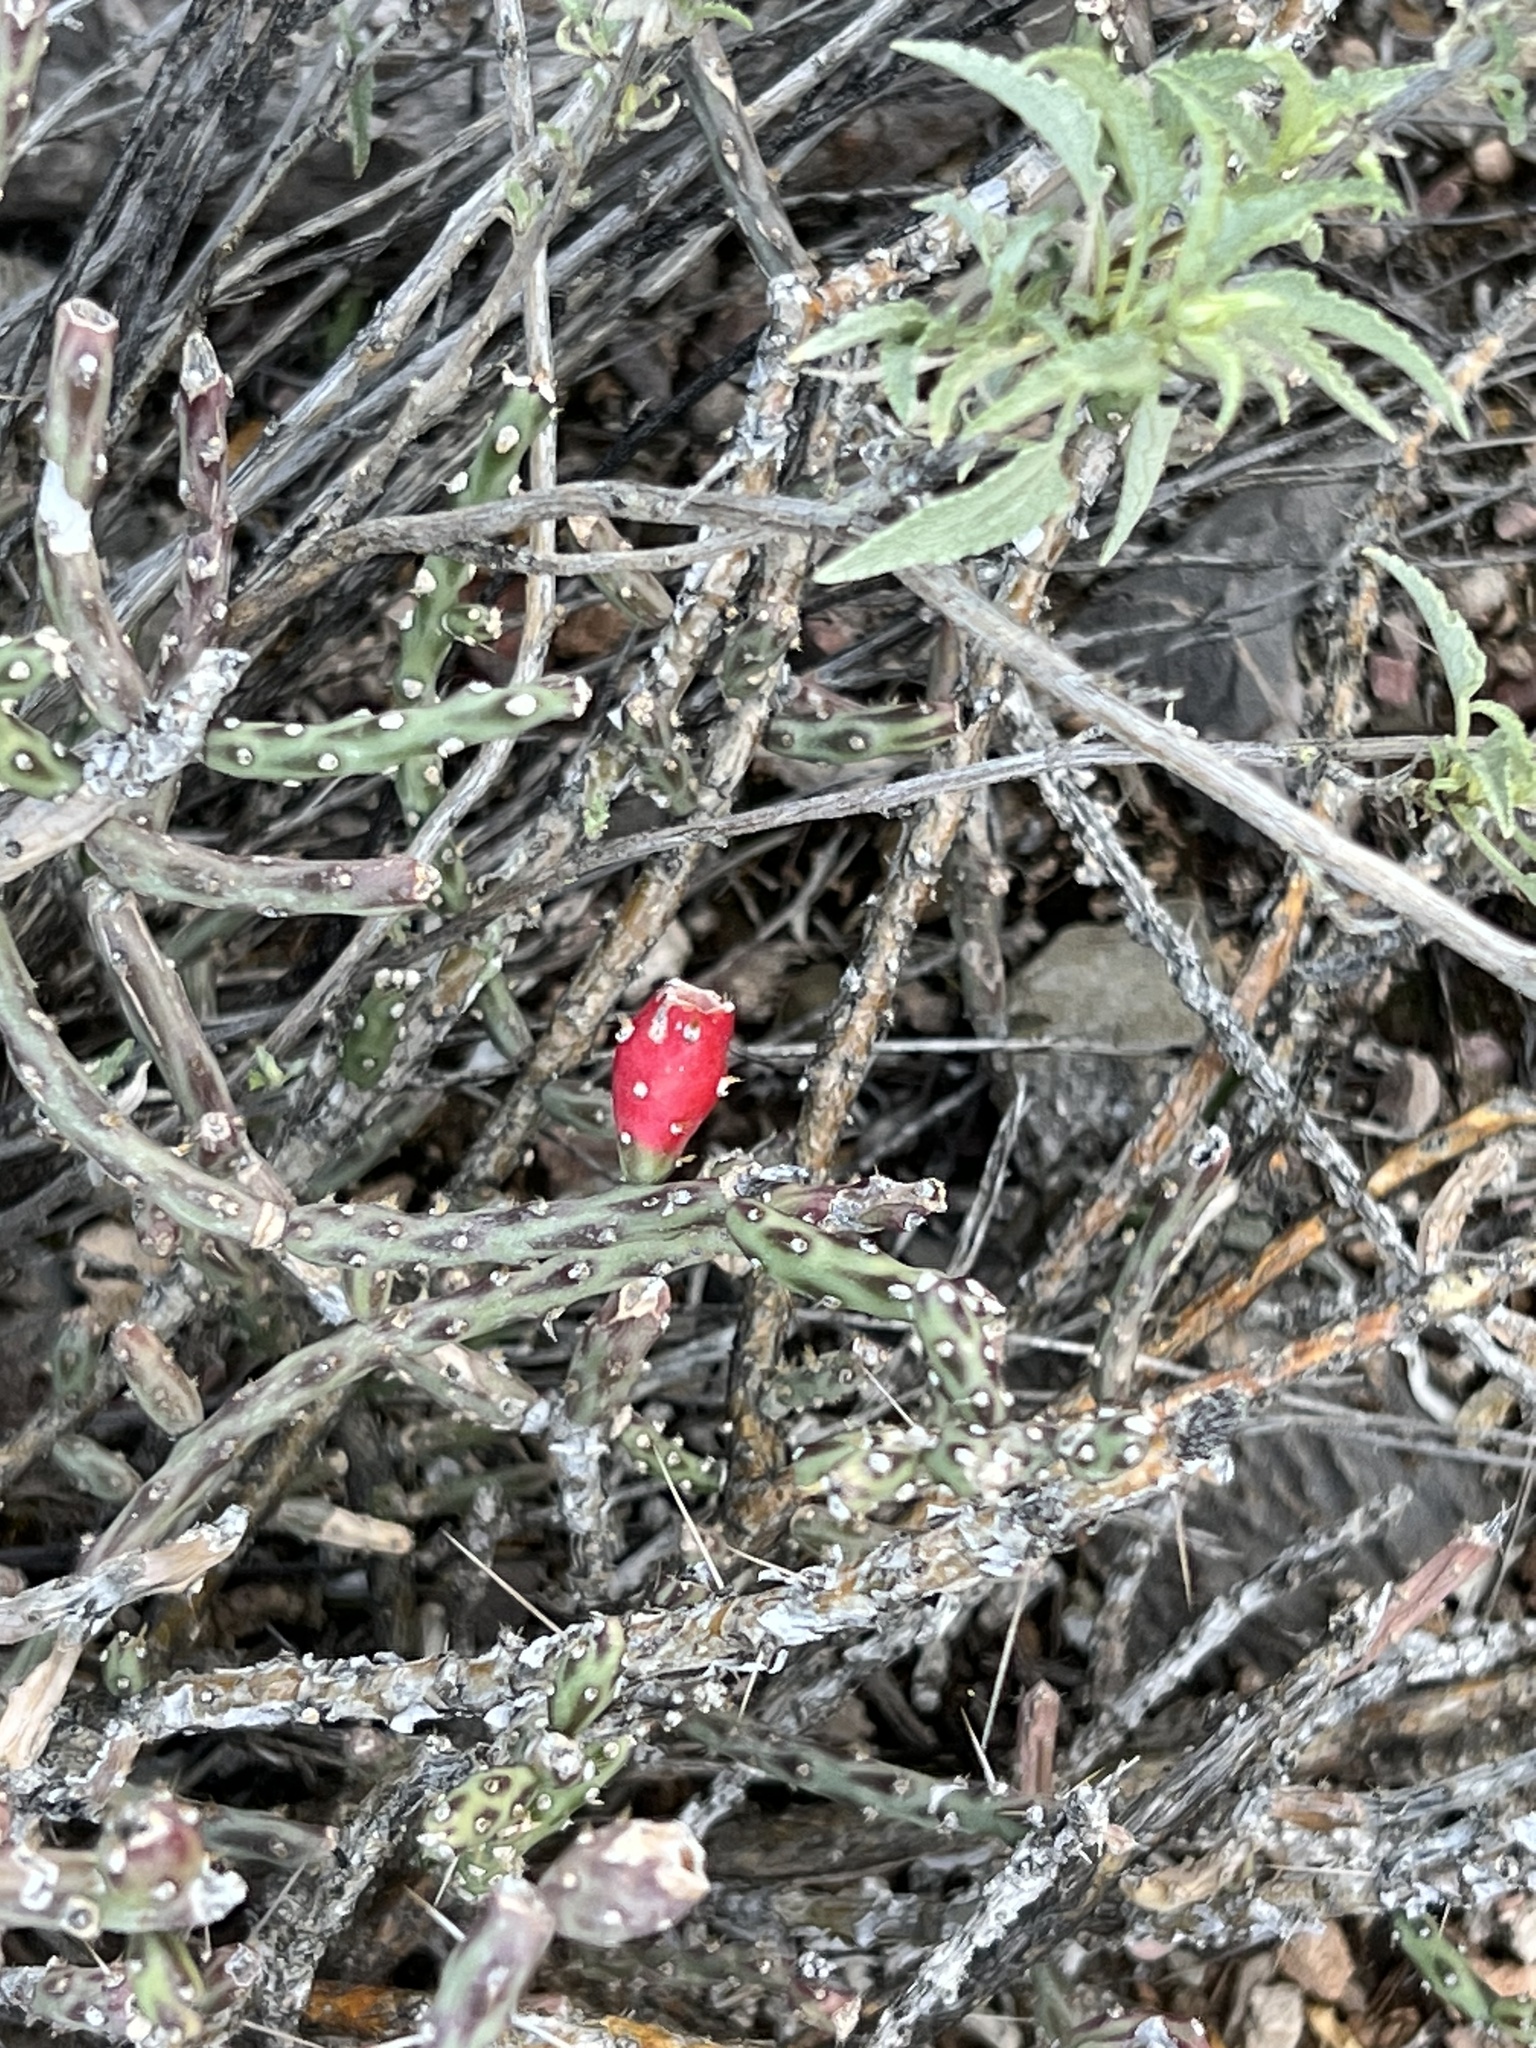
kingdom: Plantae
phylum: Tracheophyta
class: Magnoliopsida
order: Caryophyllales
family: Cactaceae
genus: Cylindropuntia
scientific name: Cylindropuntia leptocaulis
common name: Christmas cactus
